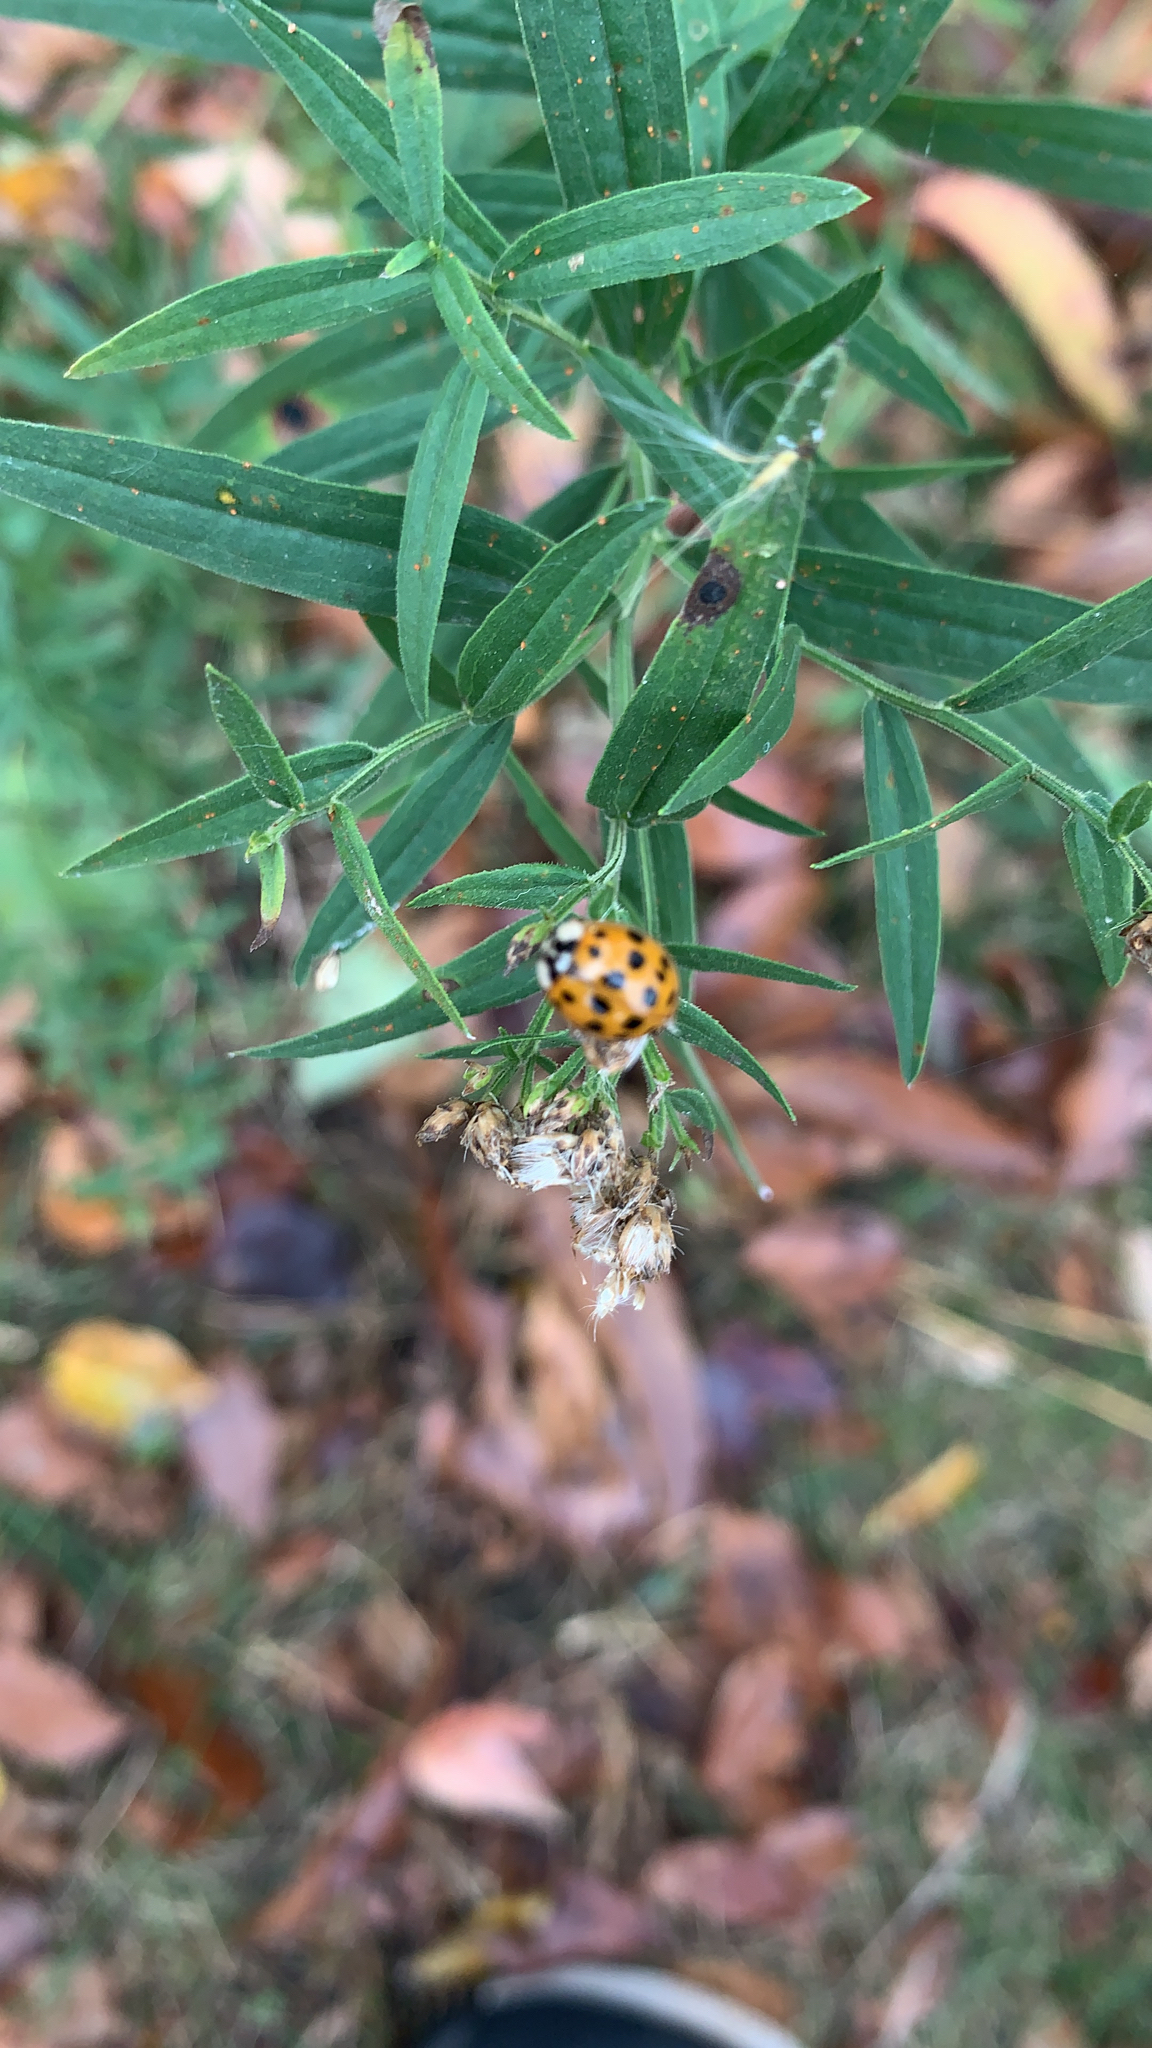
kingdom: Animalia
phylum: Arthropoda
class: Insecta
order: Coleoptera
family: Coccinellidae
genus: Harmonia
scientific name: Harmonia axyridis
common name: Harlequin ladybird
